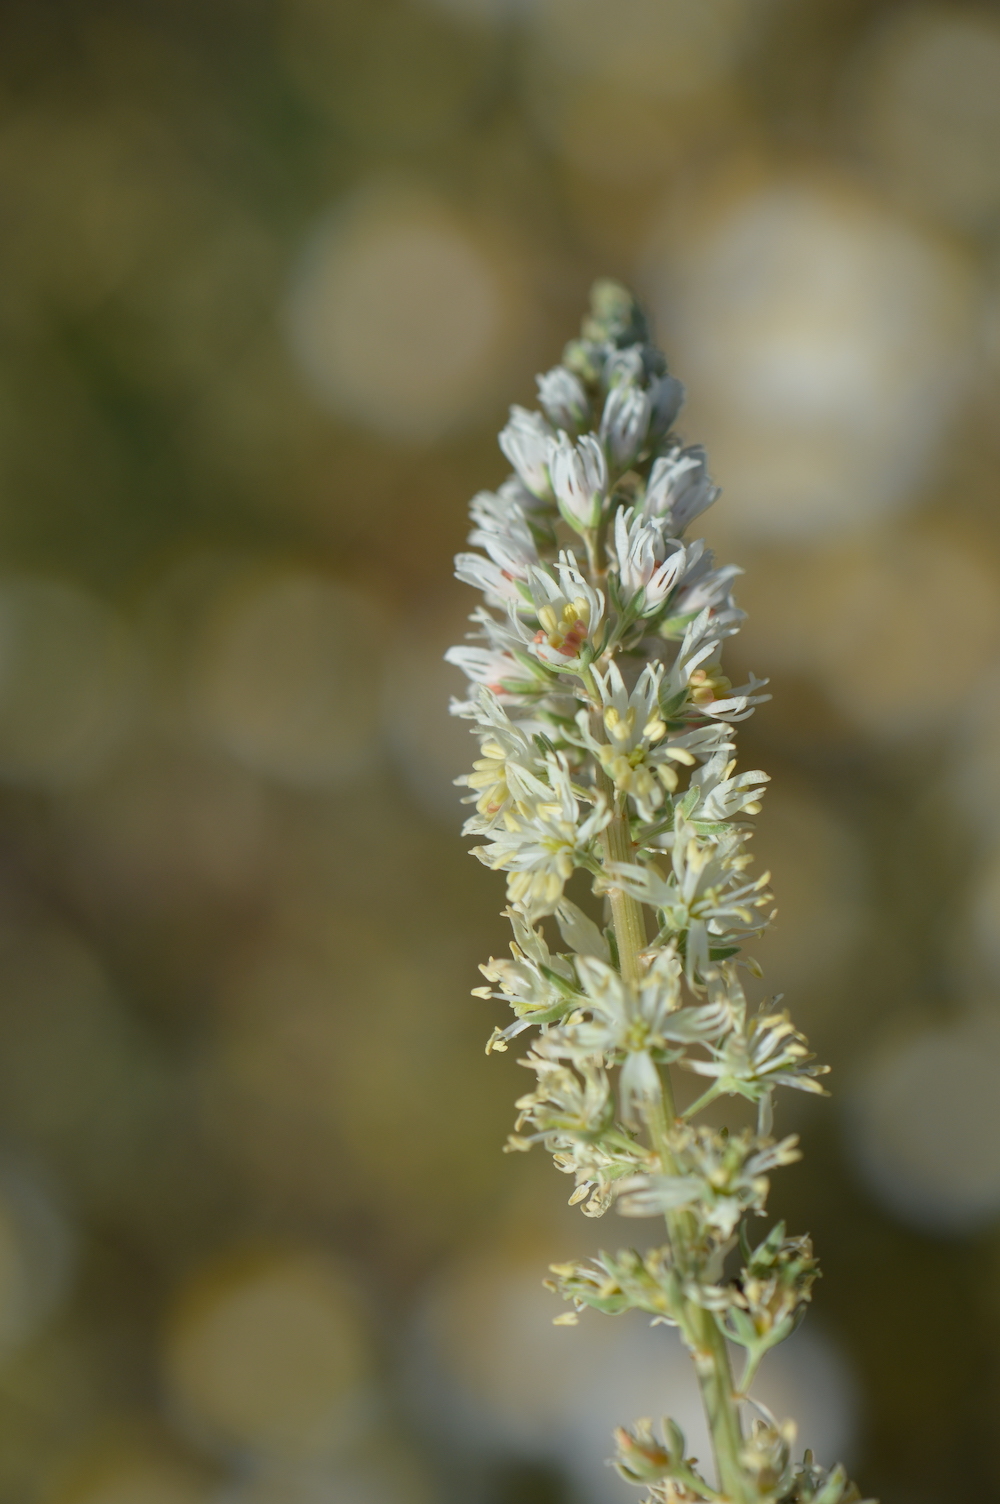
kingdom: Plantae
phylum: Tracheophyta
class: Magnoliopsida
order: Brassicales
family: Resedaceae
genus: Reseda
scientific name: Reseda alba
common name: White mignonette
